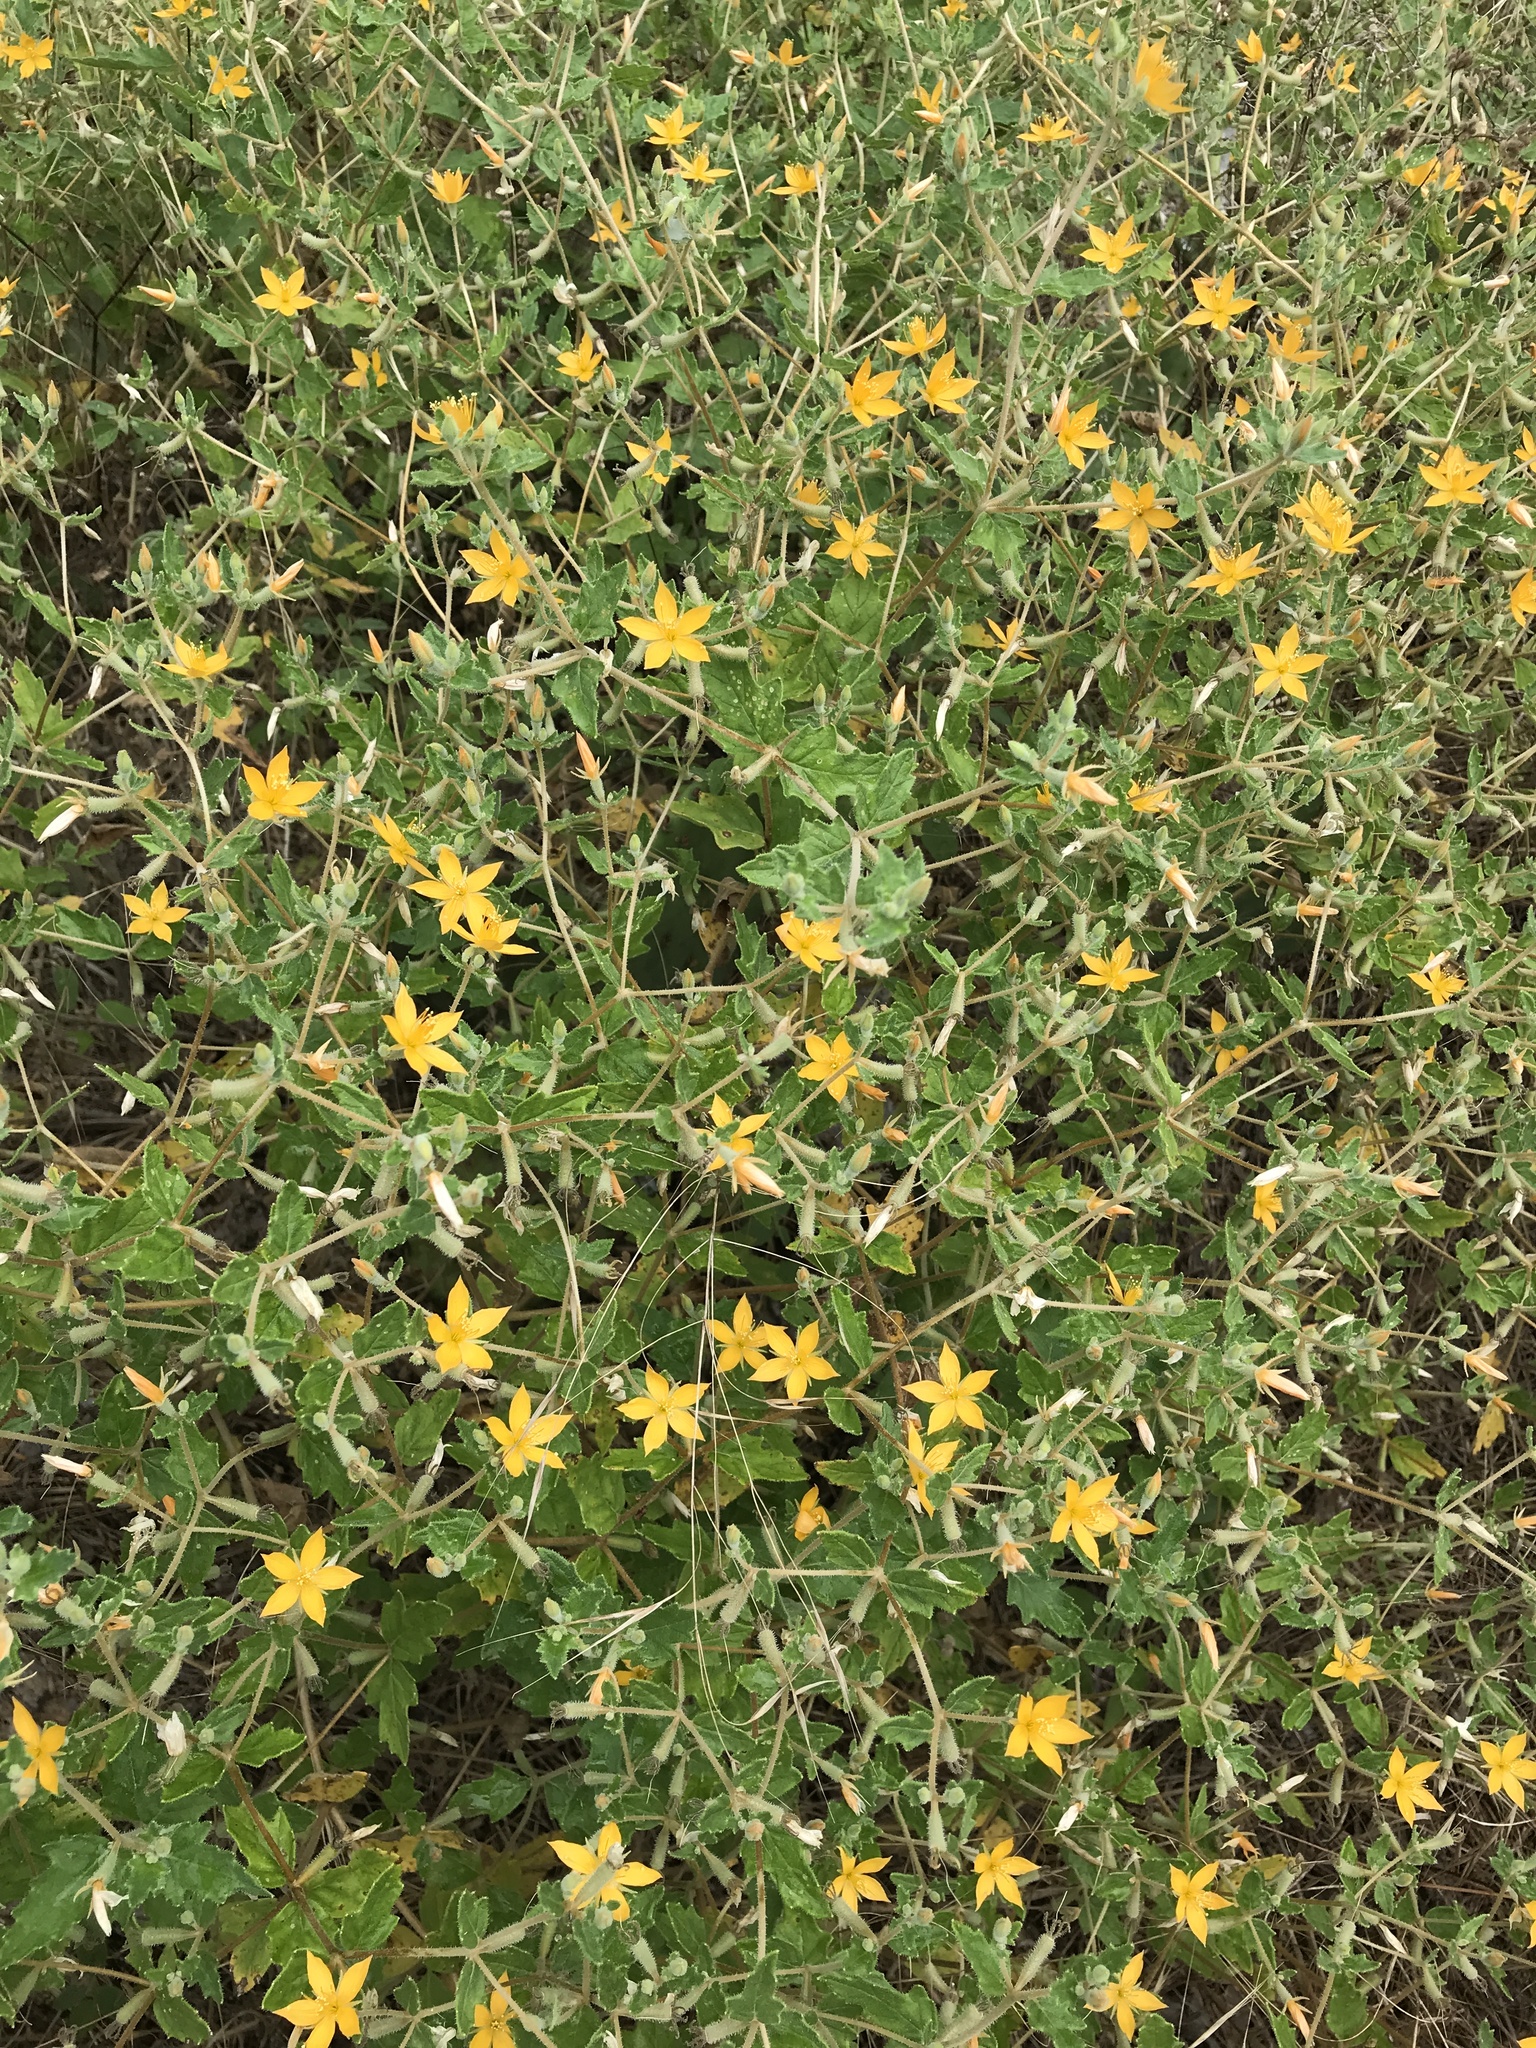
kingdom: Plantae
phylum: Tracheophyta
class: Magnoliopsida
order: Cornales
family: Loasaceae
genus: Mentzelia
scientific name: Mentzelia oligosperma
